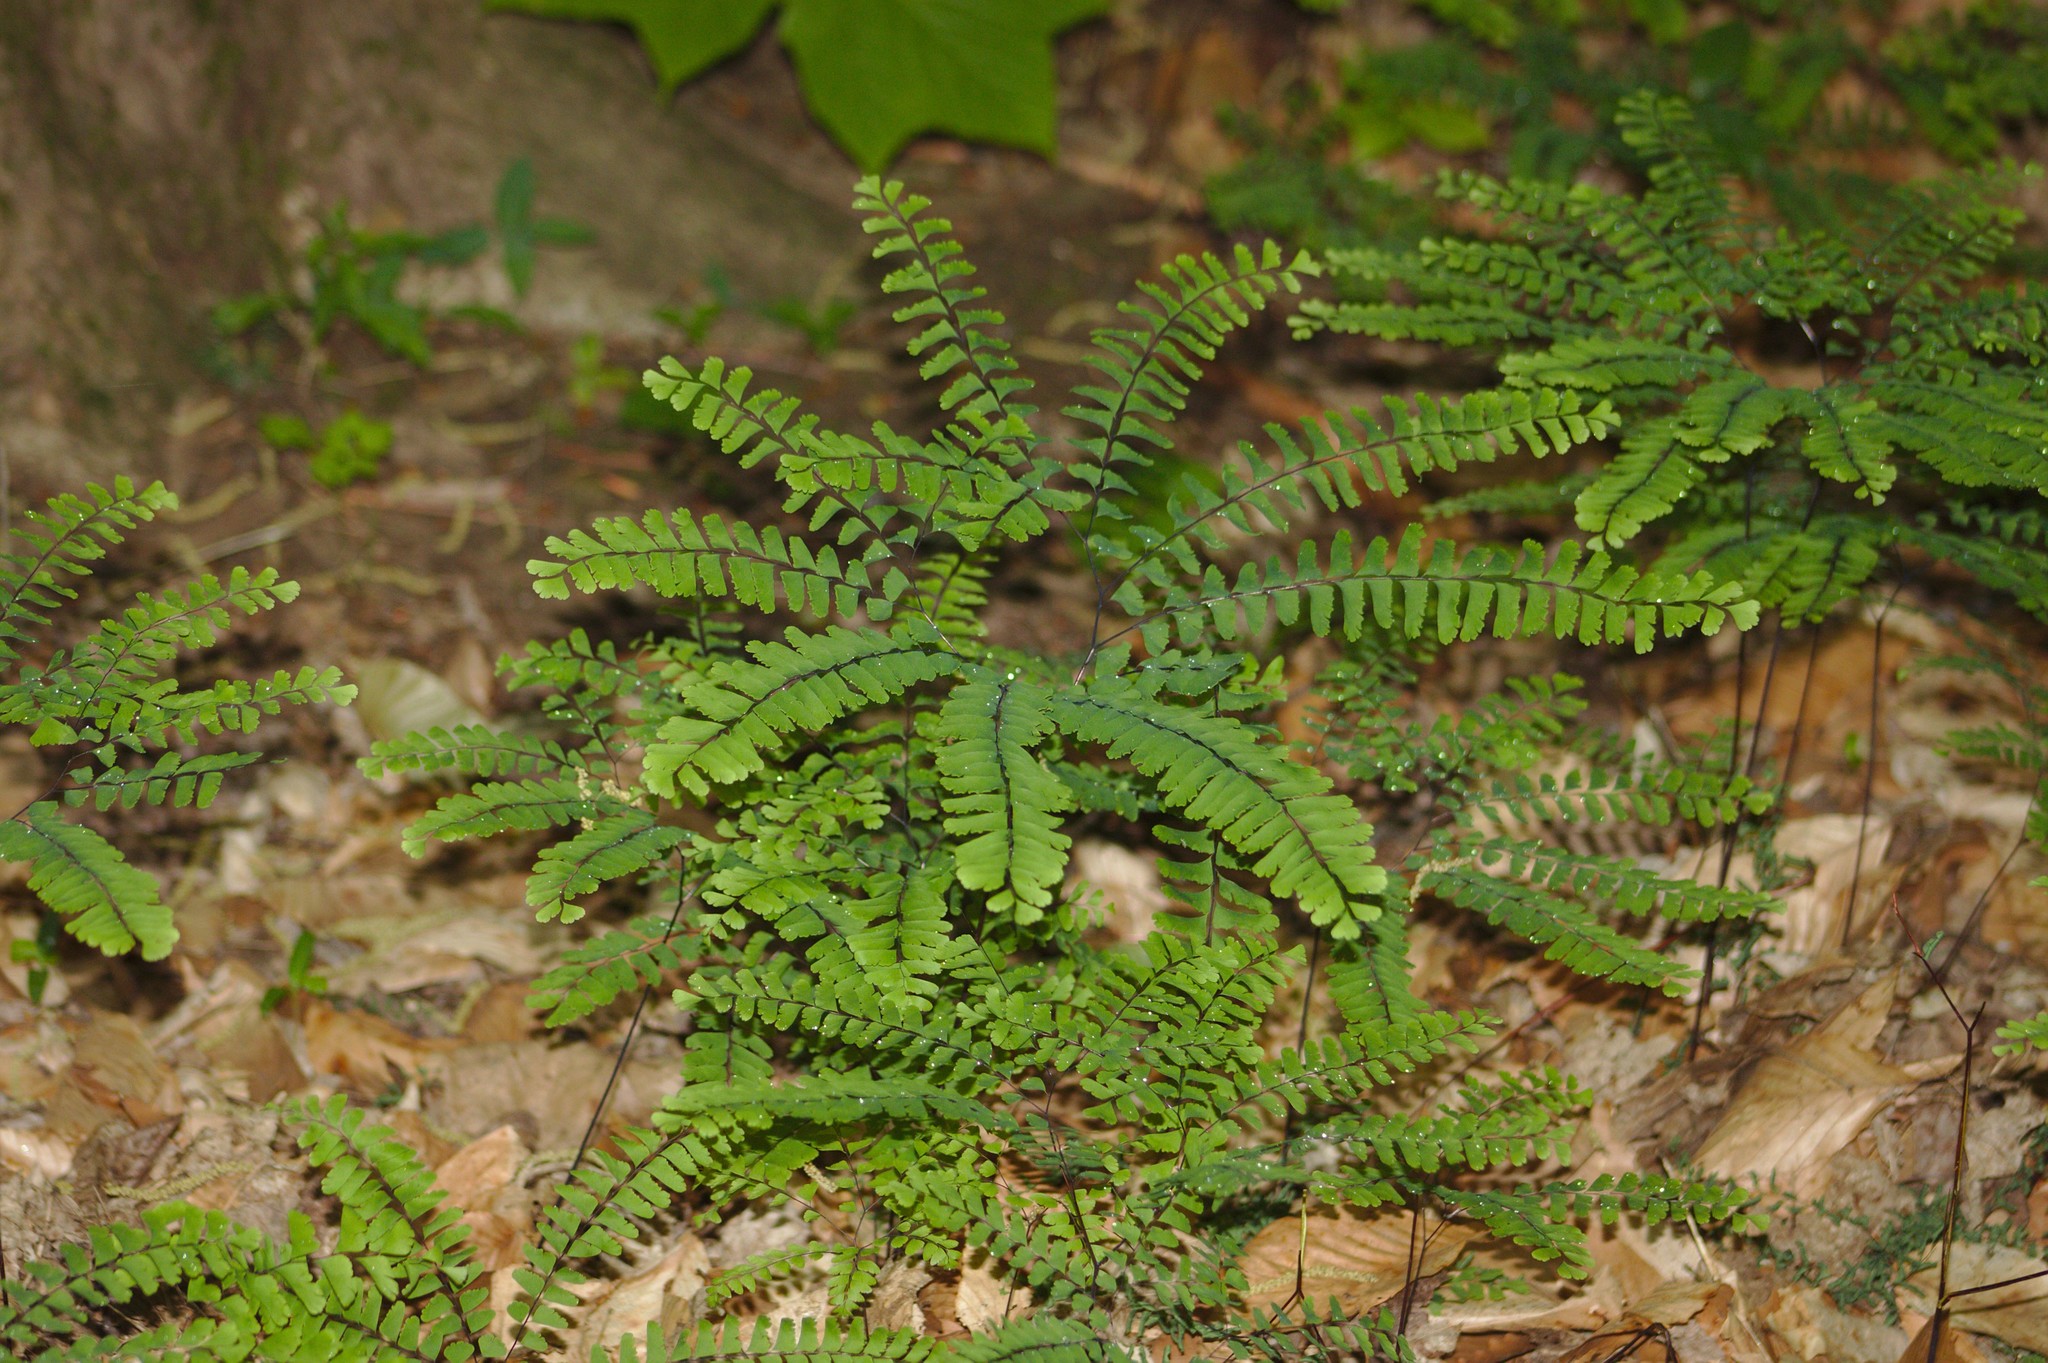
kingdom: Plantae
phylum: Tracheophyta
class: Polypodiopsida
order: Polypodiales
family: Pteridaceae
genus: Adiantum
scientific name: Adiantum pedatum
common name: Five-finger fern
